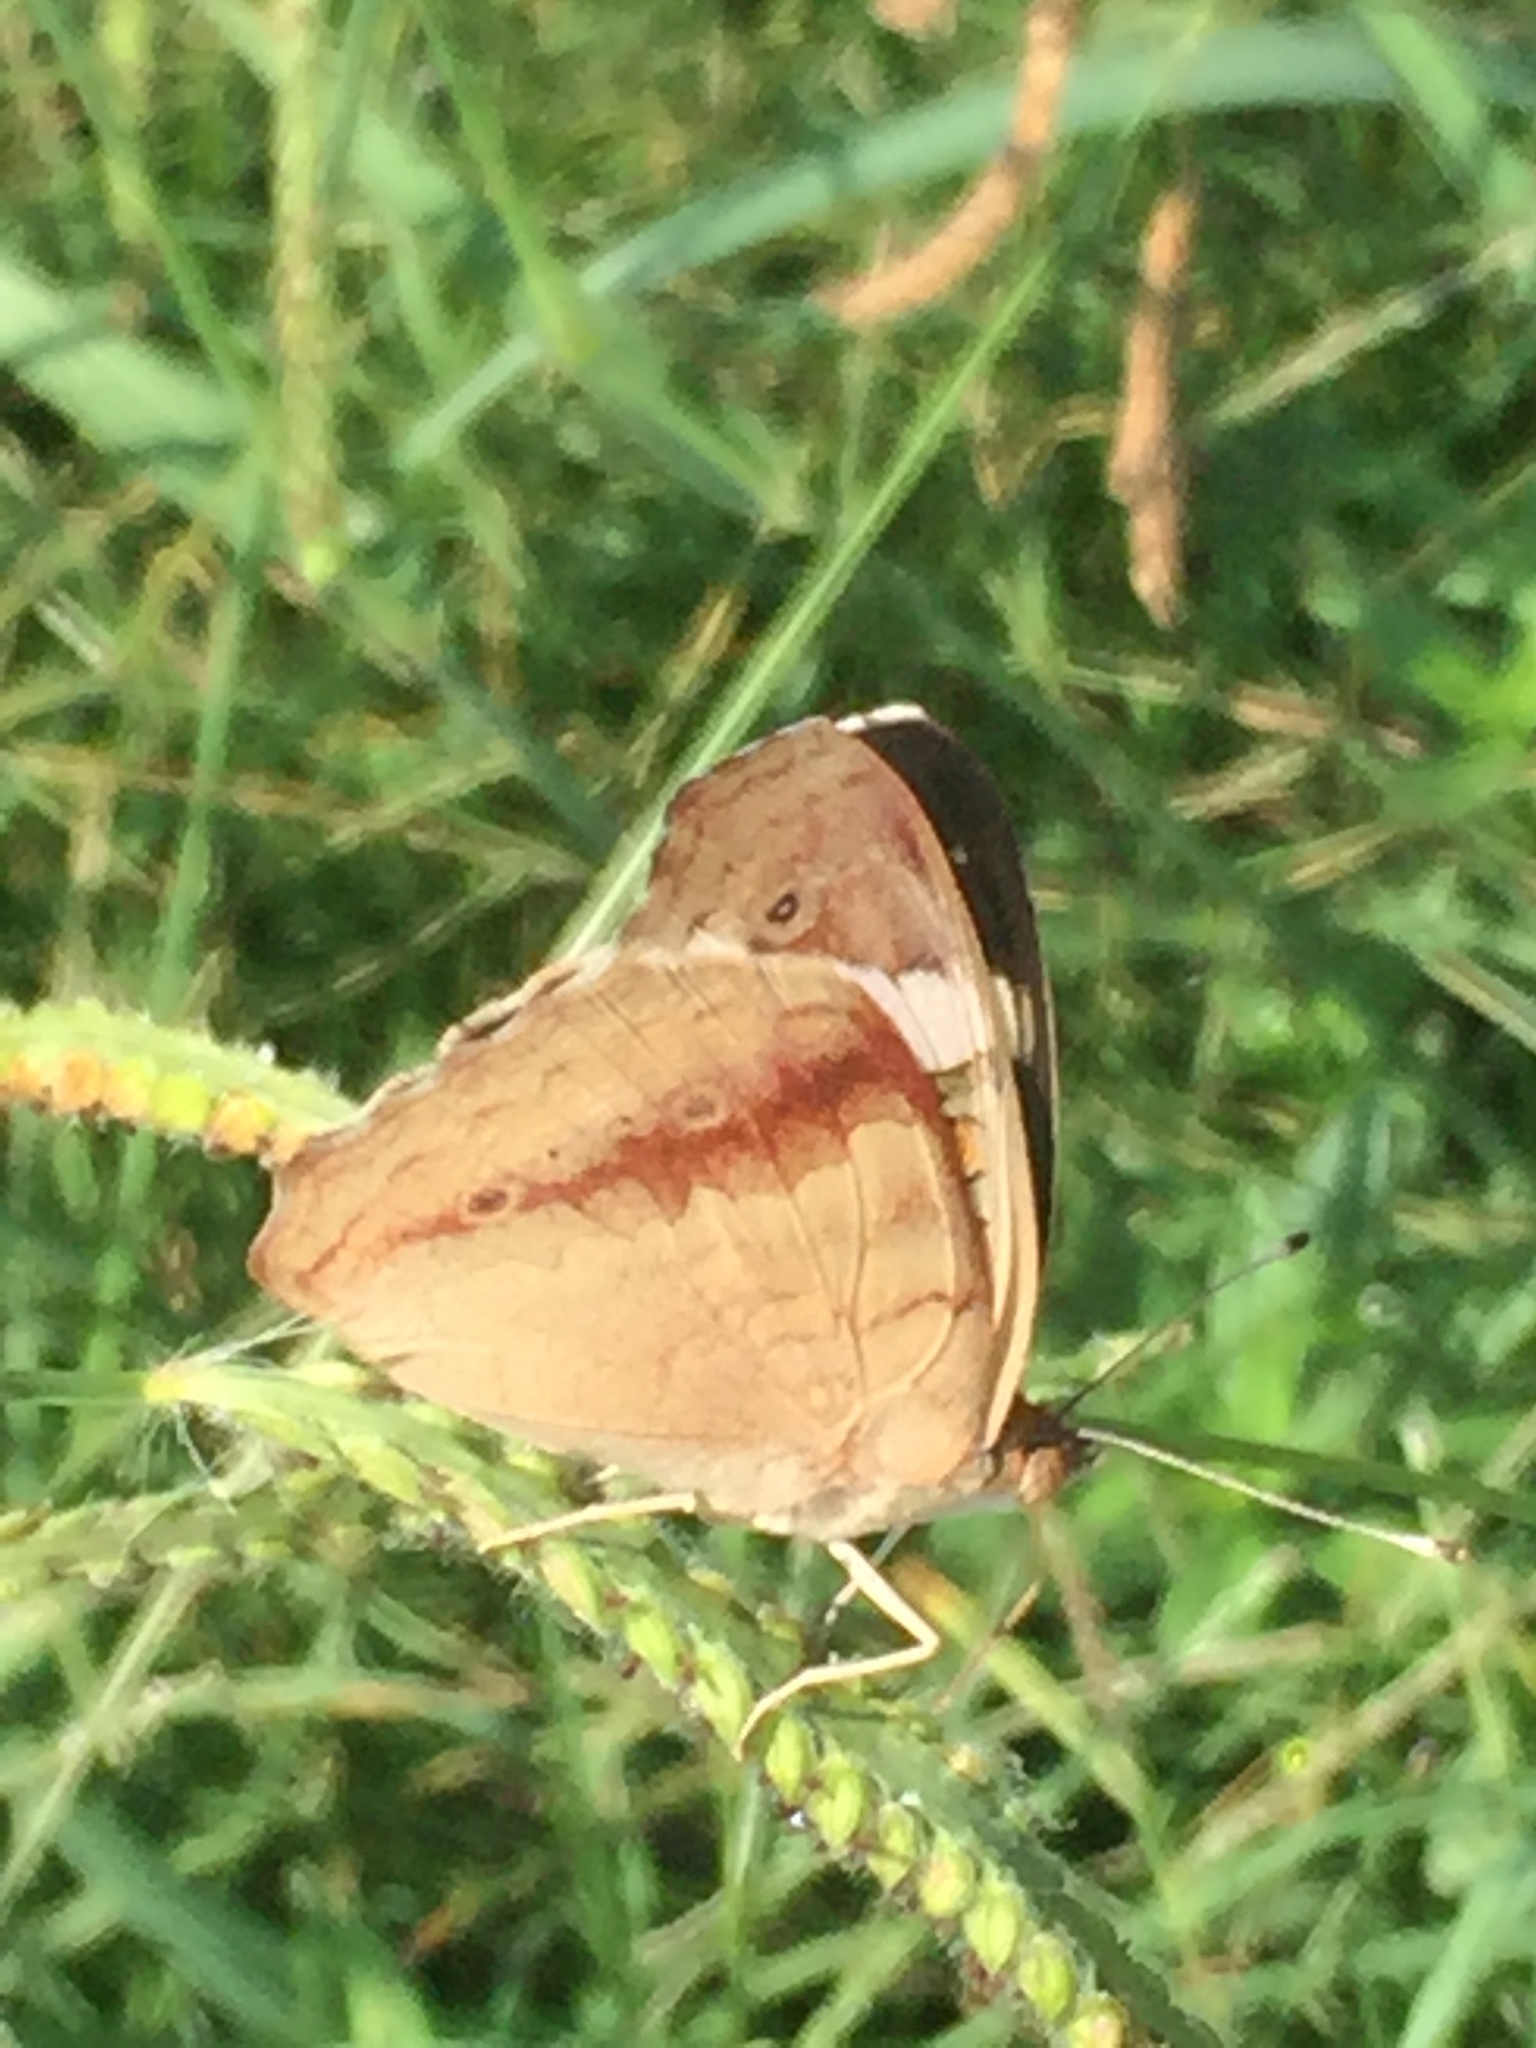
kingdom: Animalia
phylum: Arthropoda
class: Insecta
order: Lepidoptera
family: Nymphalidae
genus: Junonia
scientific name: Junonia coenia
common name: Common buckeye
